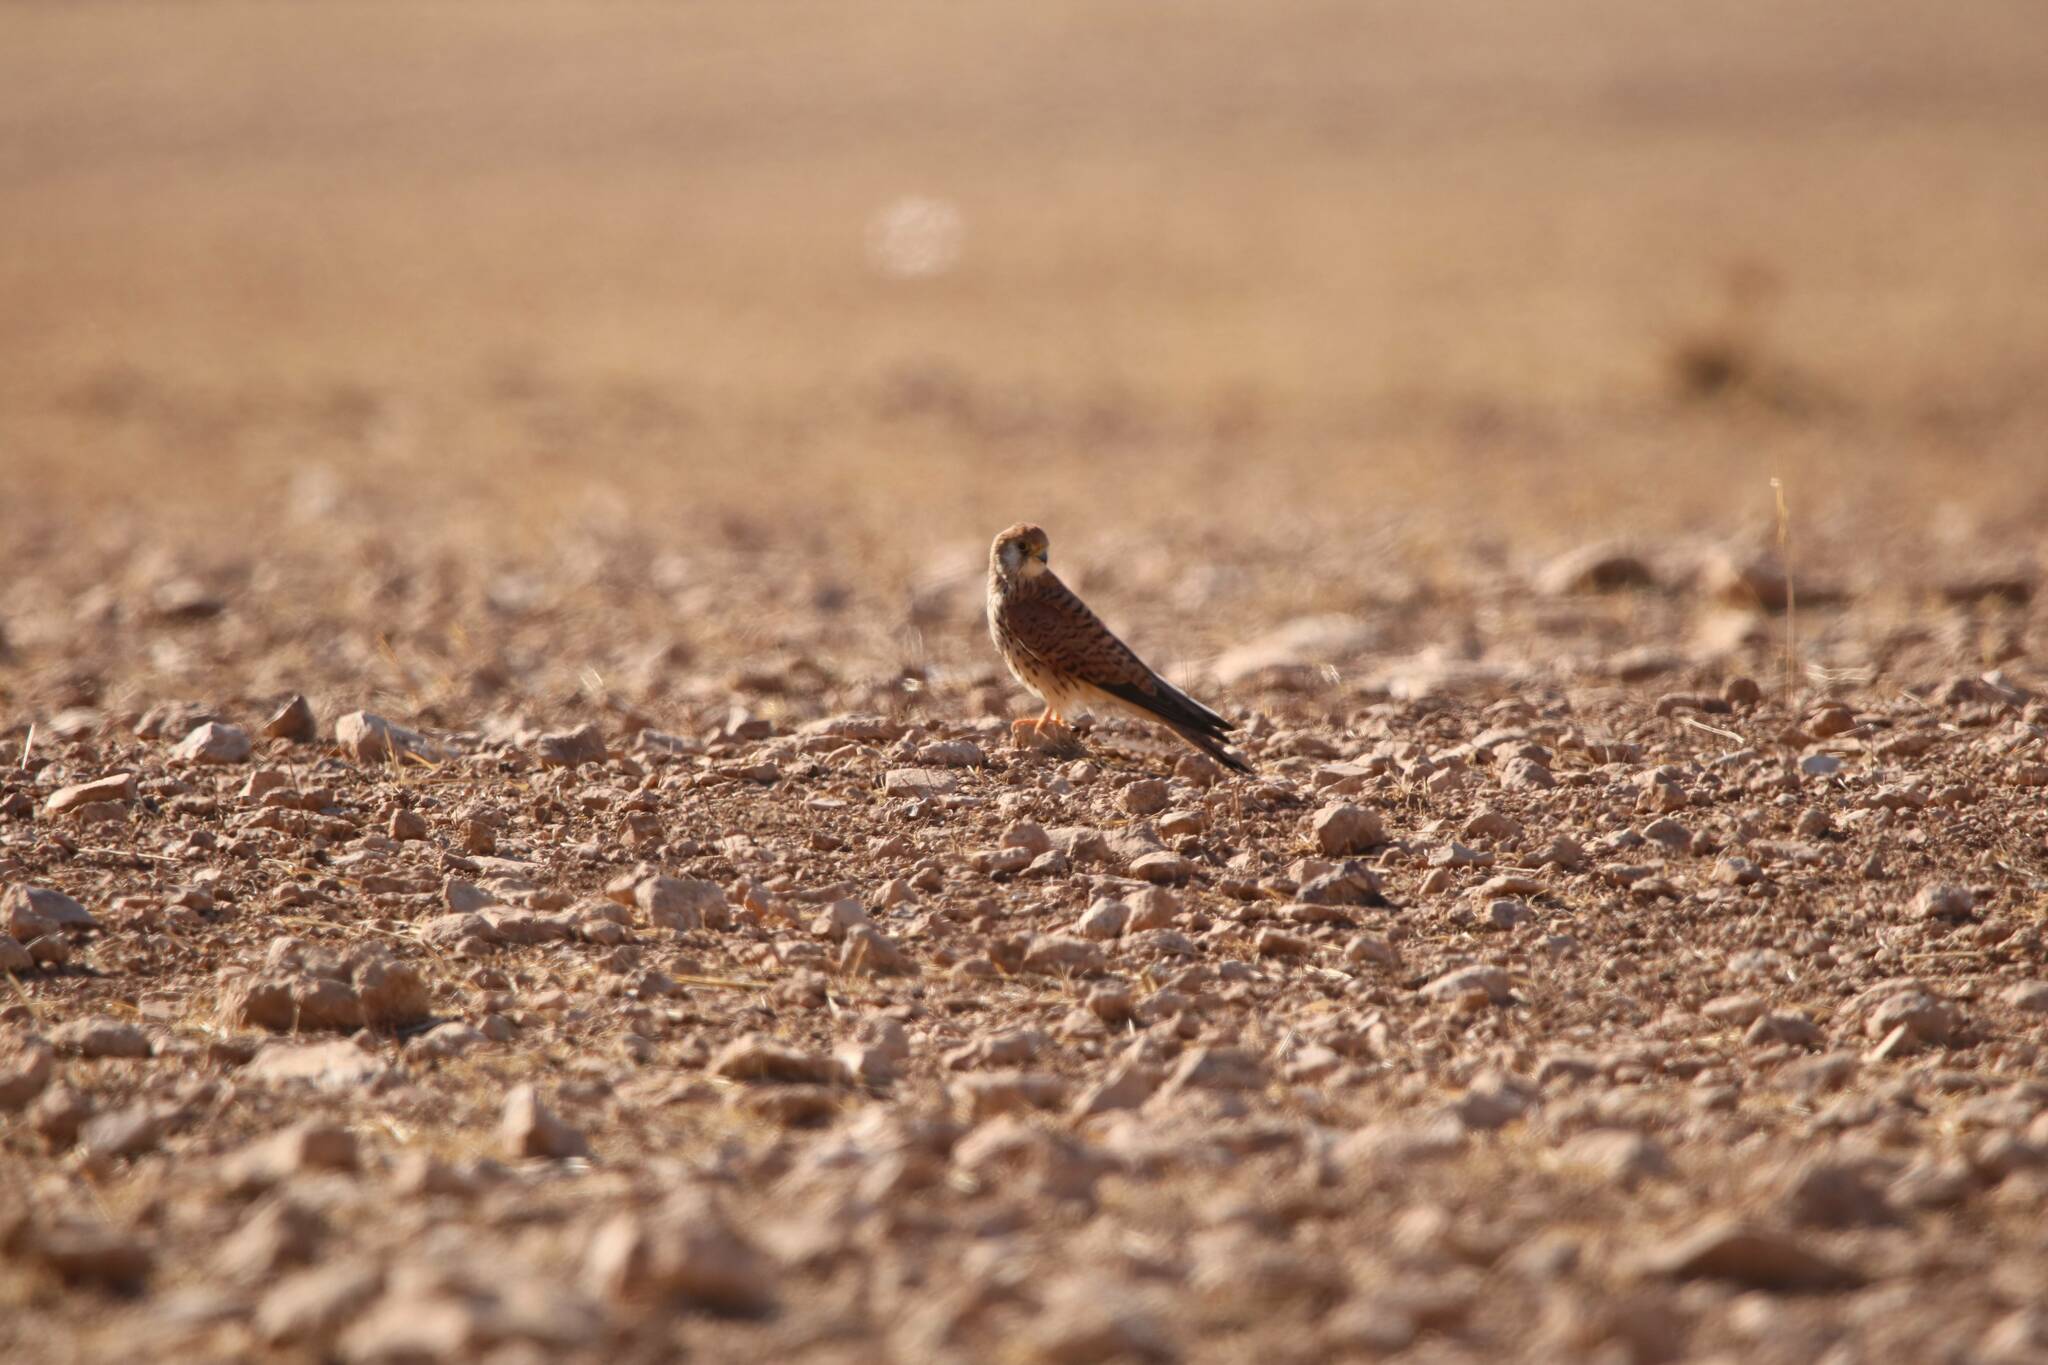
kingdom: Animalia
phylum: Chordata
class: Aves
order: Falconiformes
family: Falconidae
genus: Falco
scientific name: Falco tinnunculus
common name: Common kestrel
